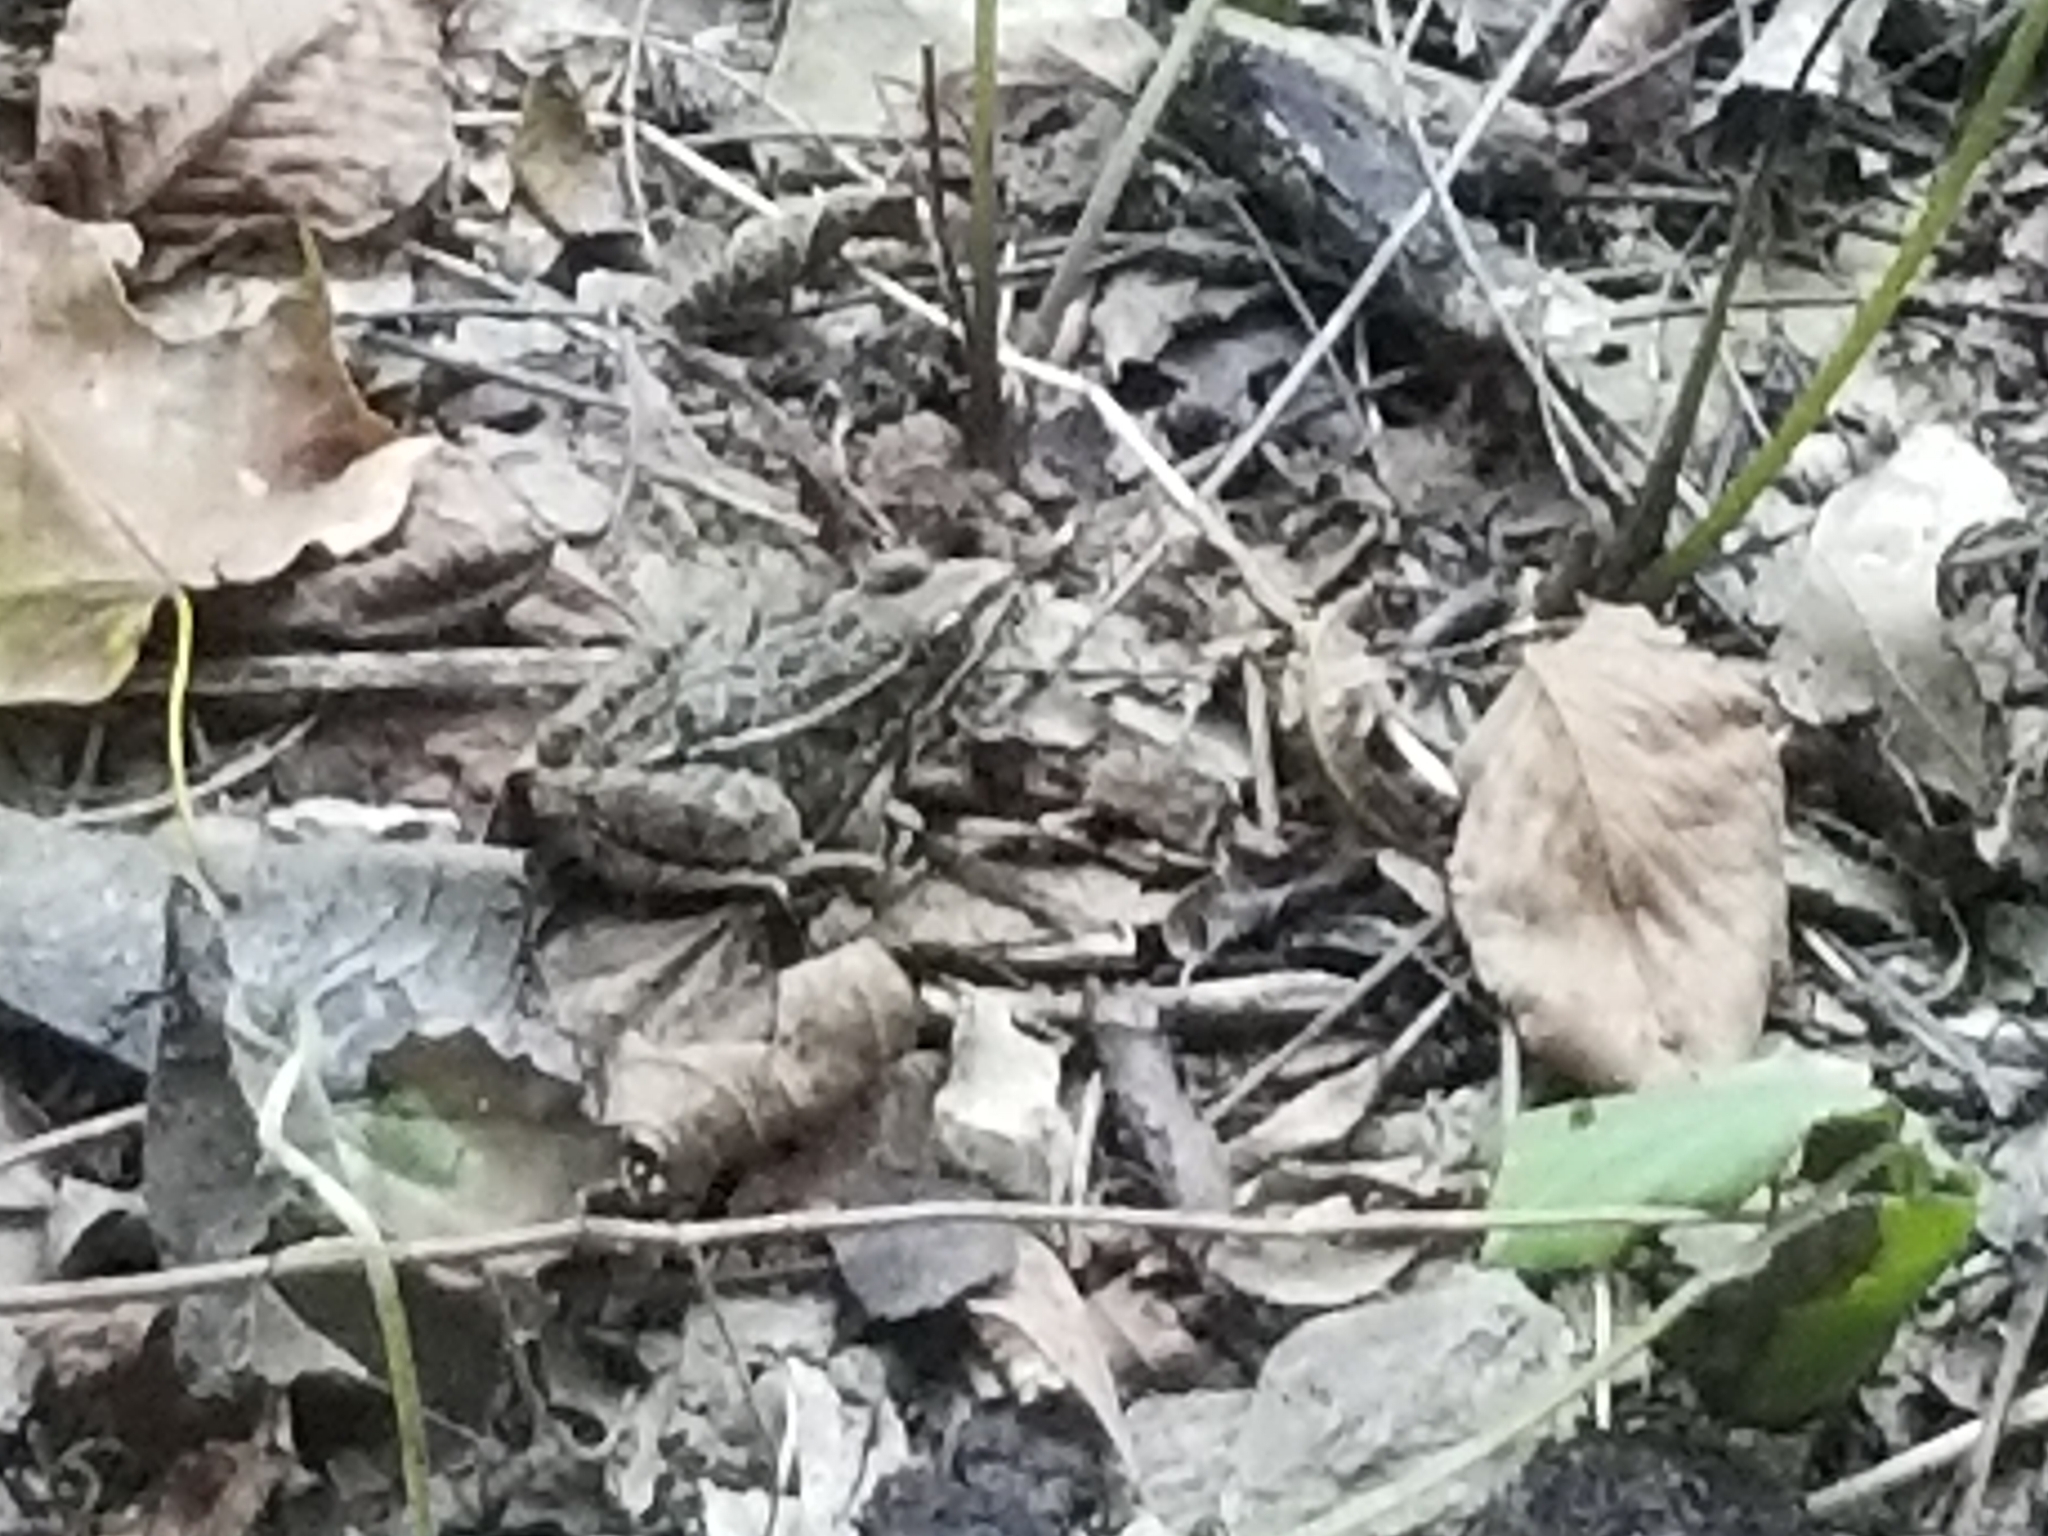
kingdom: Animalia
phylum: Chordata
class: Amphibia
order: Anura
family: Ranidae
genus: Lithobates
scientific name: Lithobates blairi
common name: Plains leopard frog
